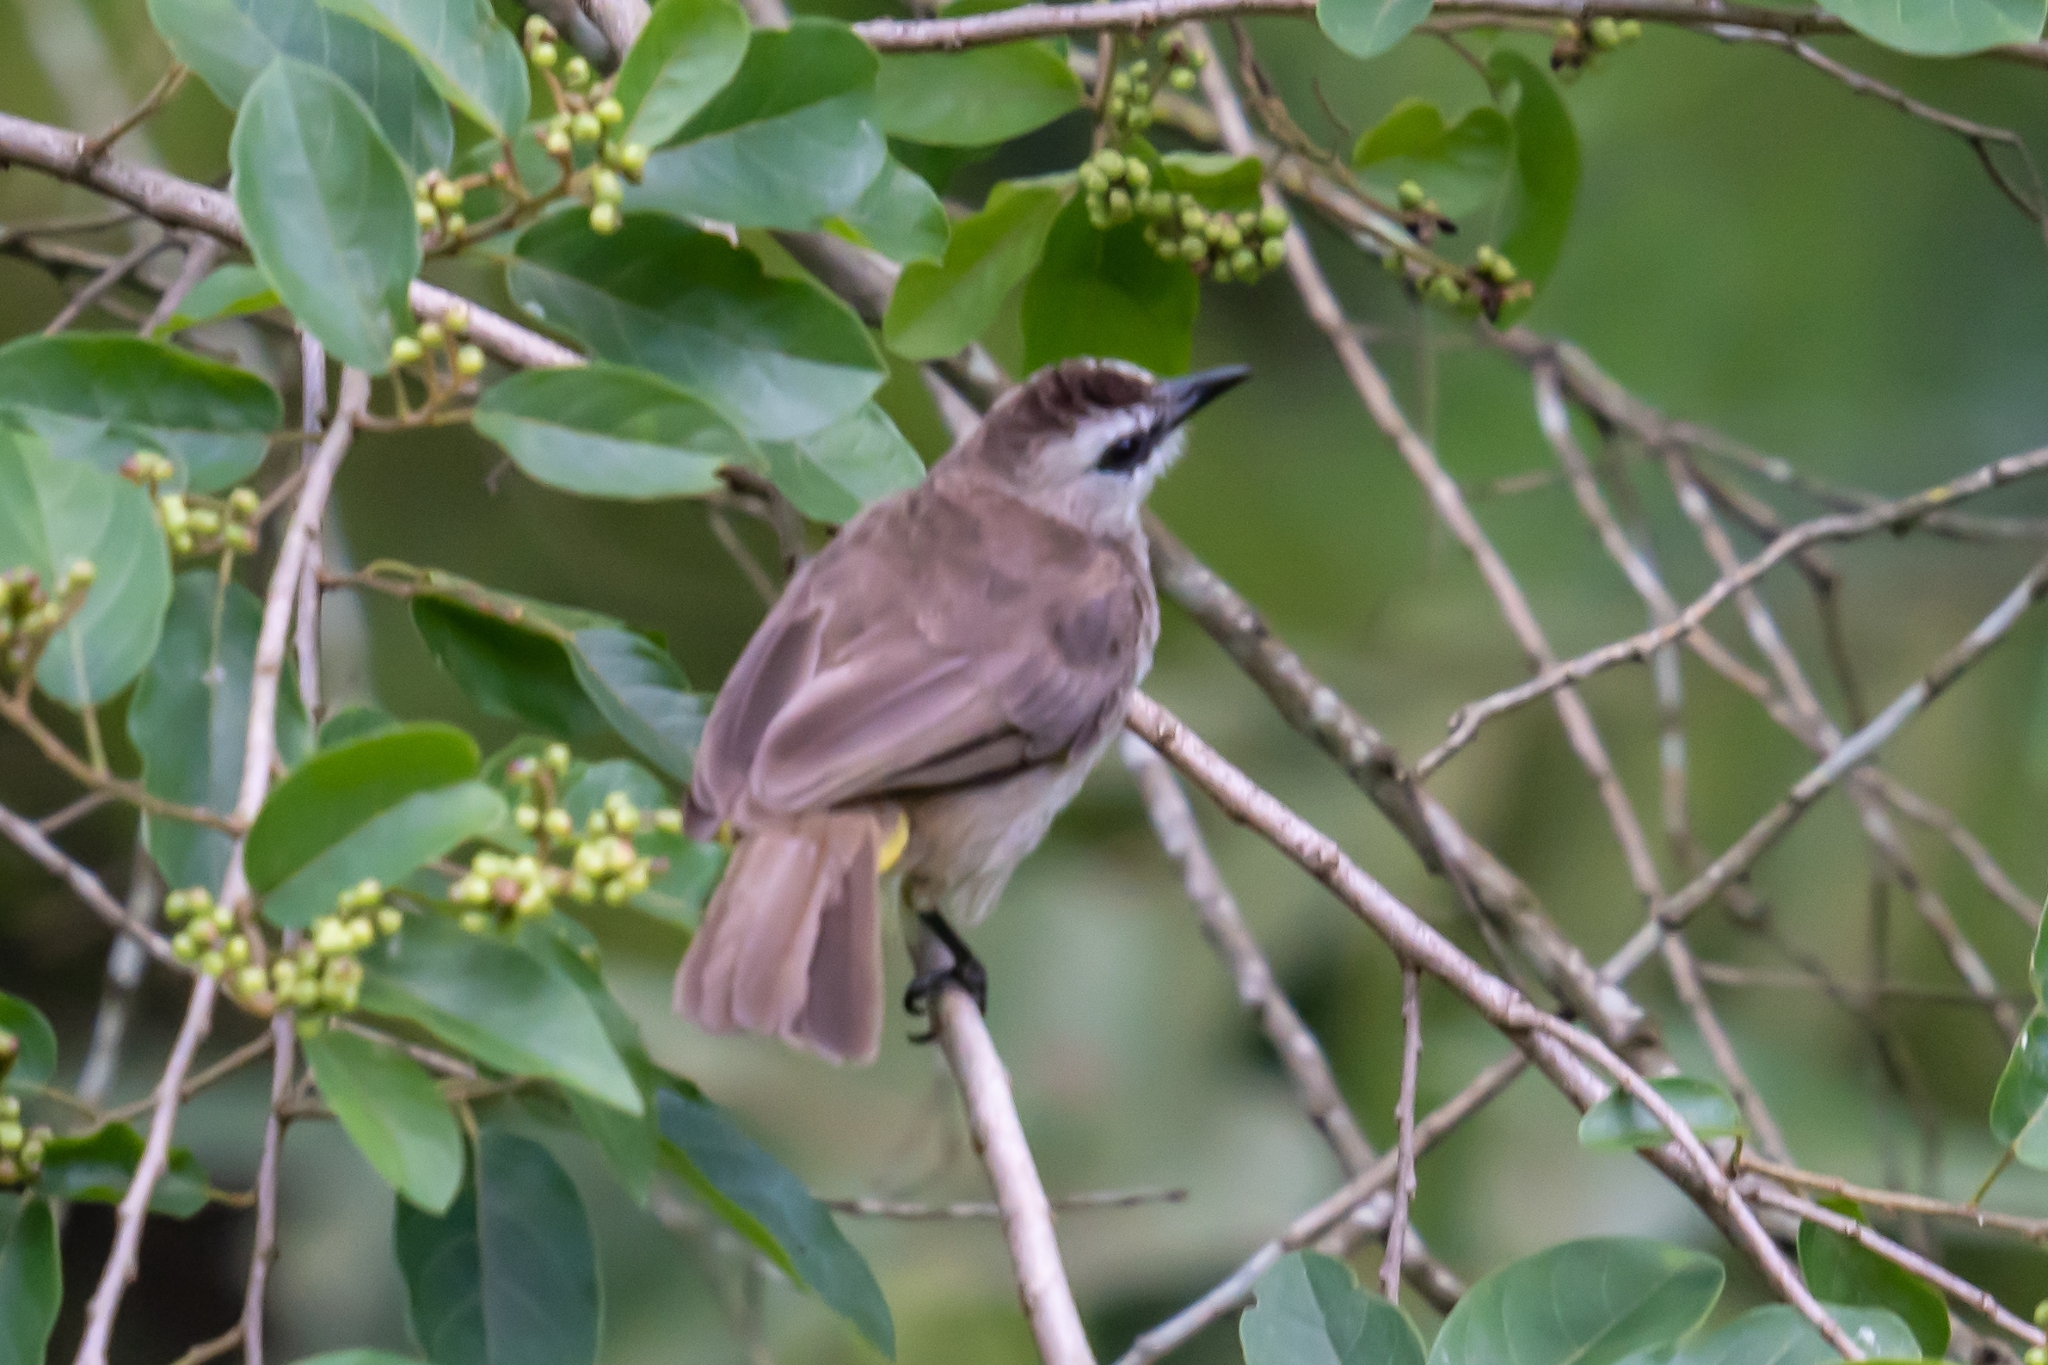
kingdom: Animalia
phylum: Chordata
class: Aves
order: Passeriformes
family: Pycnonotidae
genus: Pycnonotus
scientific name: Pycnonotus goiavier
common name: Yellow-vented bulbul
